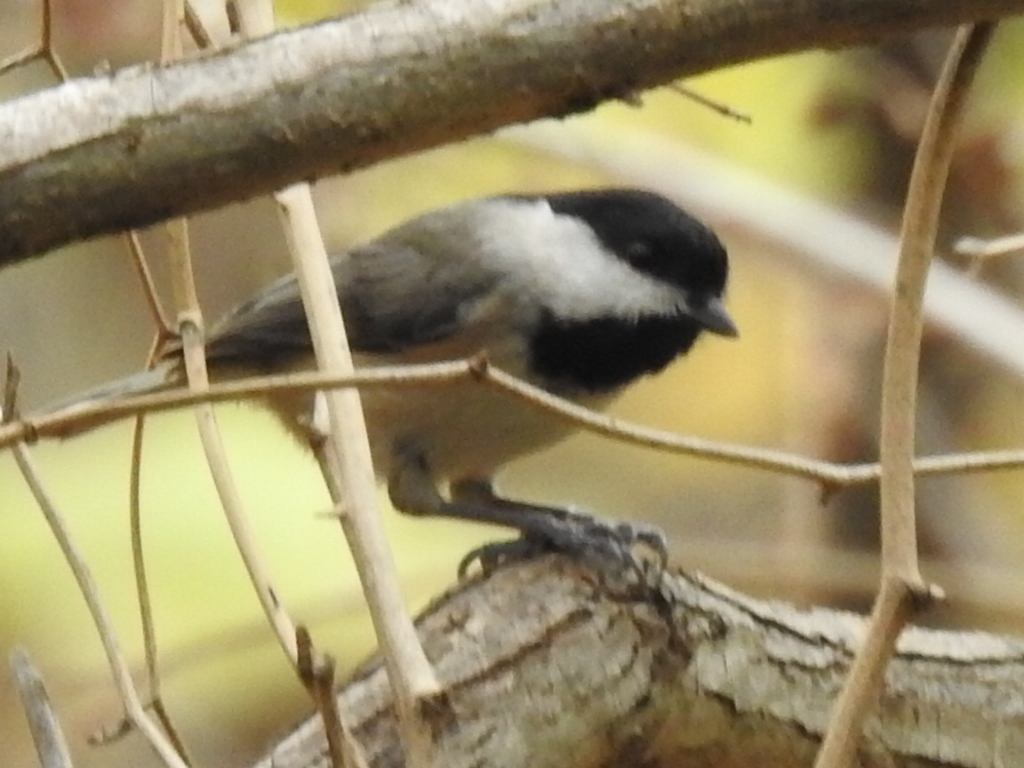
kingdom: Animalia
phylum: Chordata
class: Aves
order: Passeriformes
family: Paridae
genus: Poecile
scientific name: Poecile carolinensis
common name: Carolina chickadee
